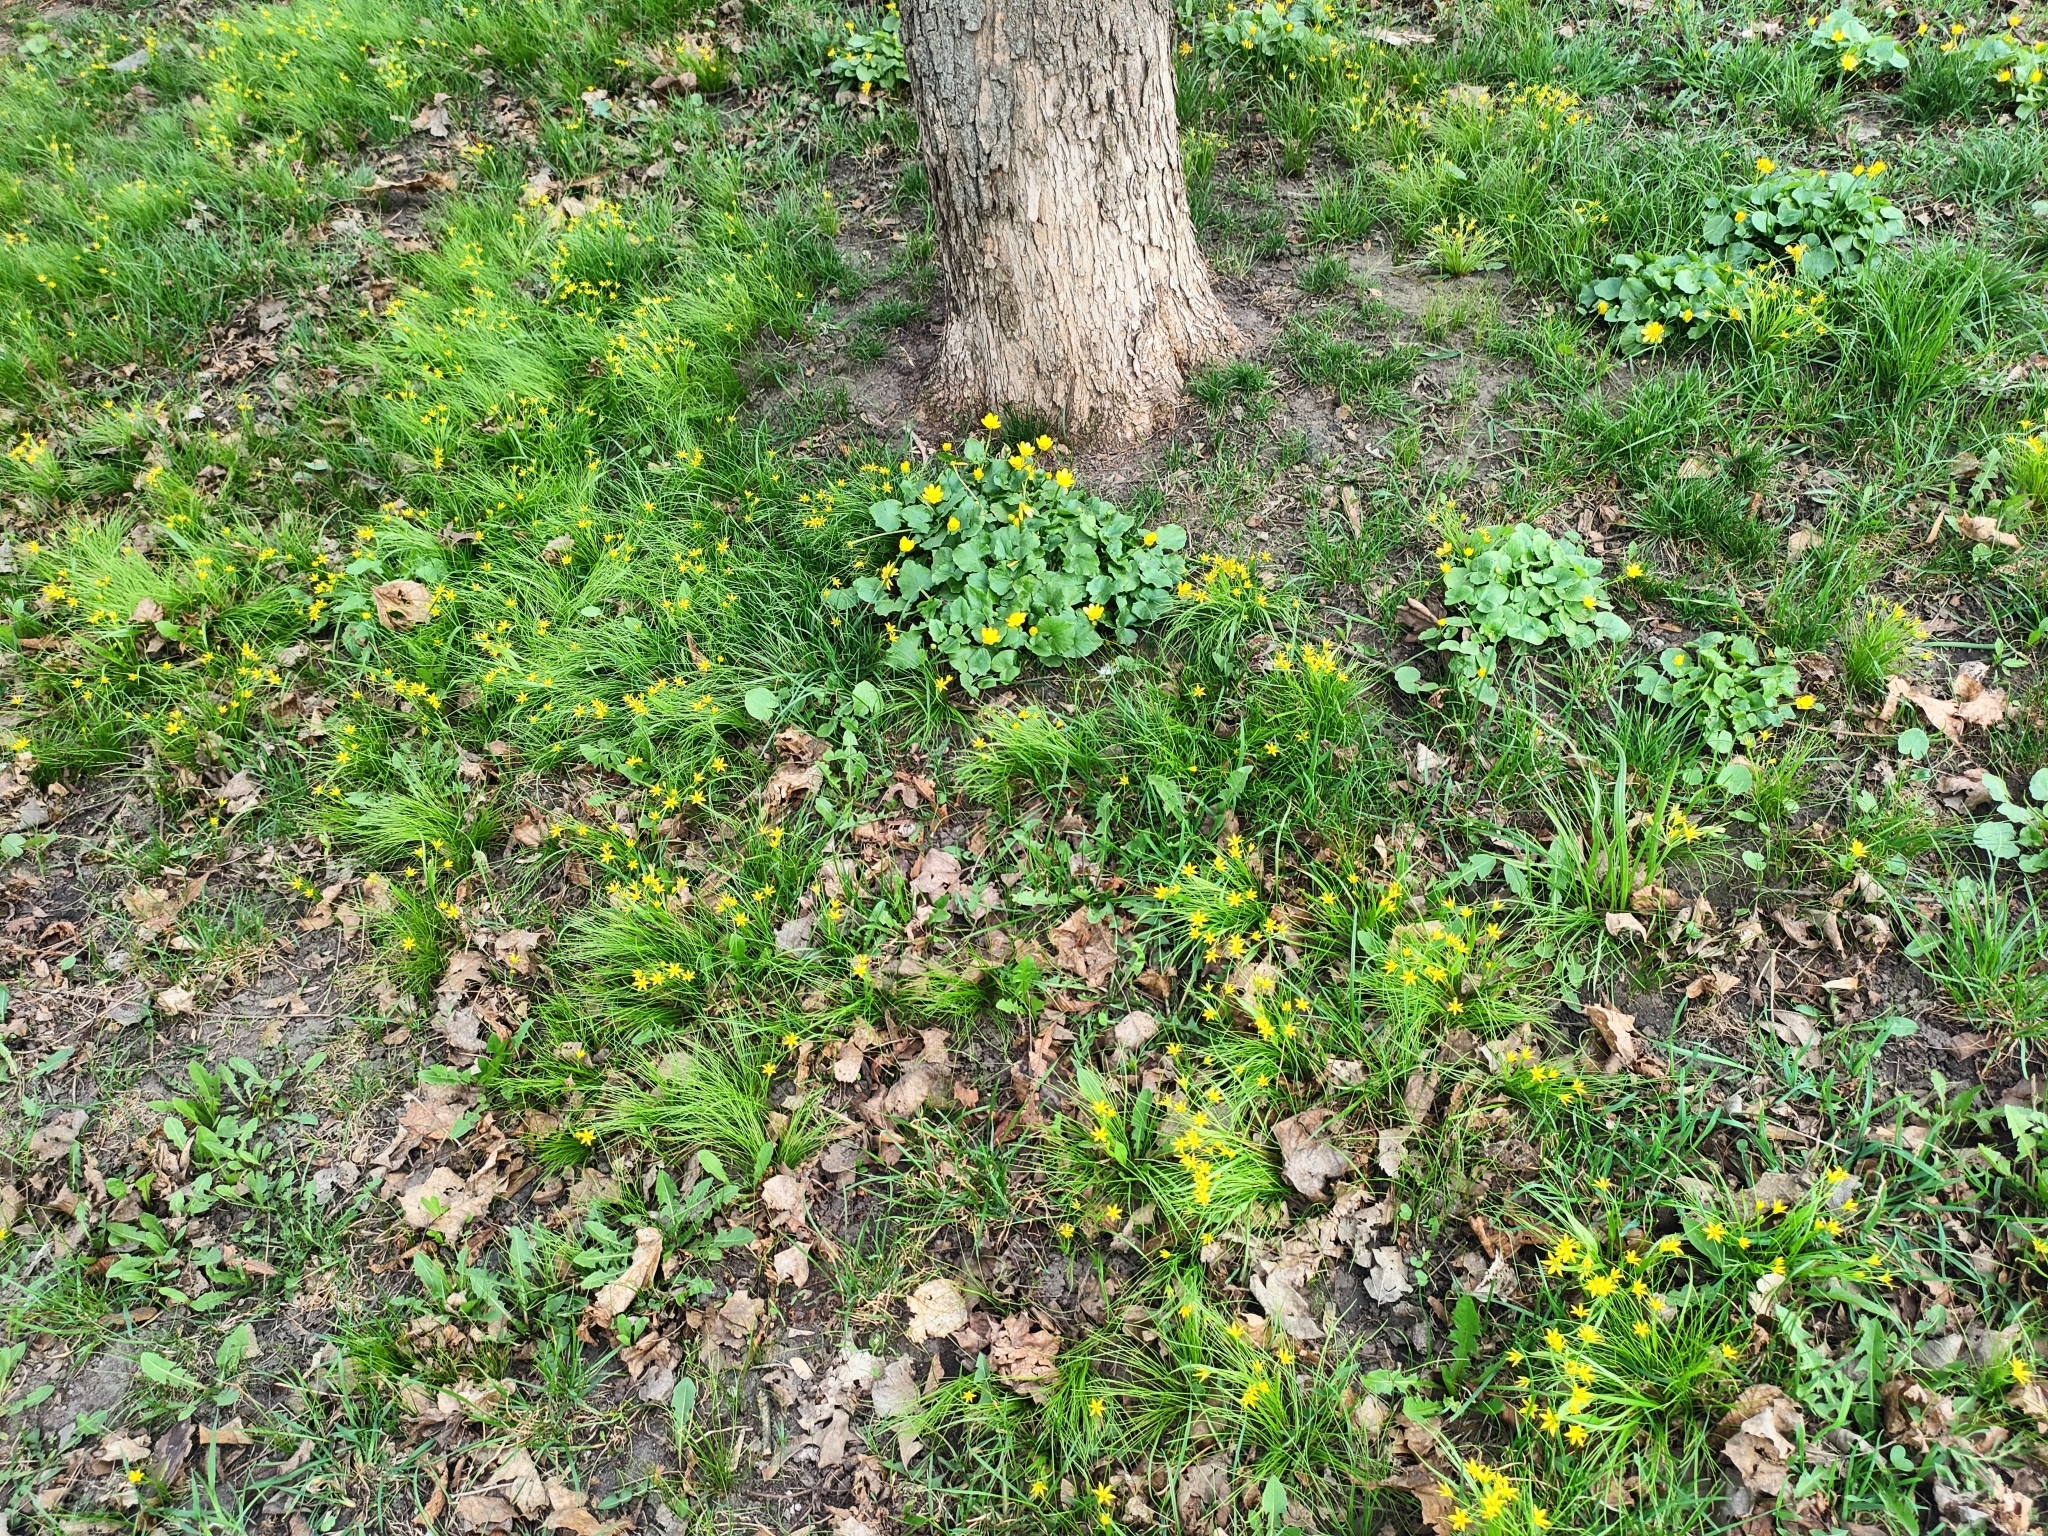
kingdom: Plantae
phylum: Tracheophyta
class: Liliopsida
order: Liliales
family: Liliaceae
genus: Gagea
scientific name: Gagea minima
